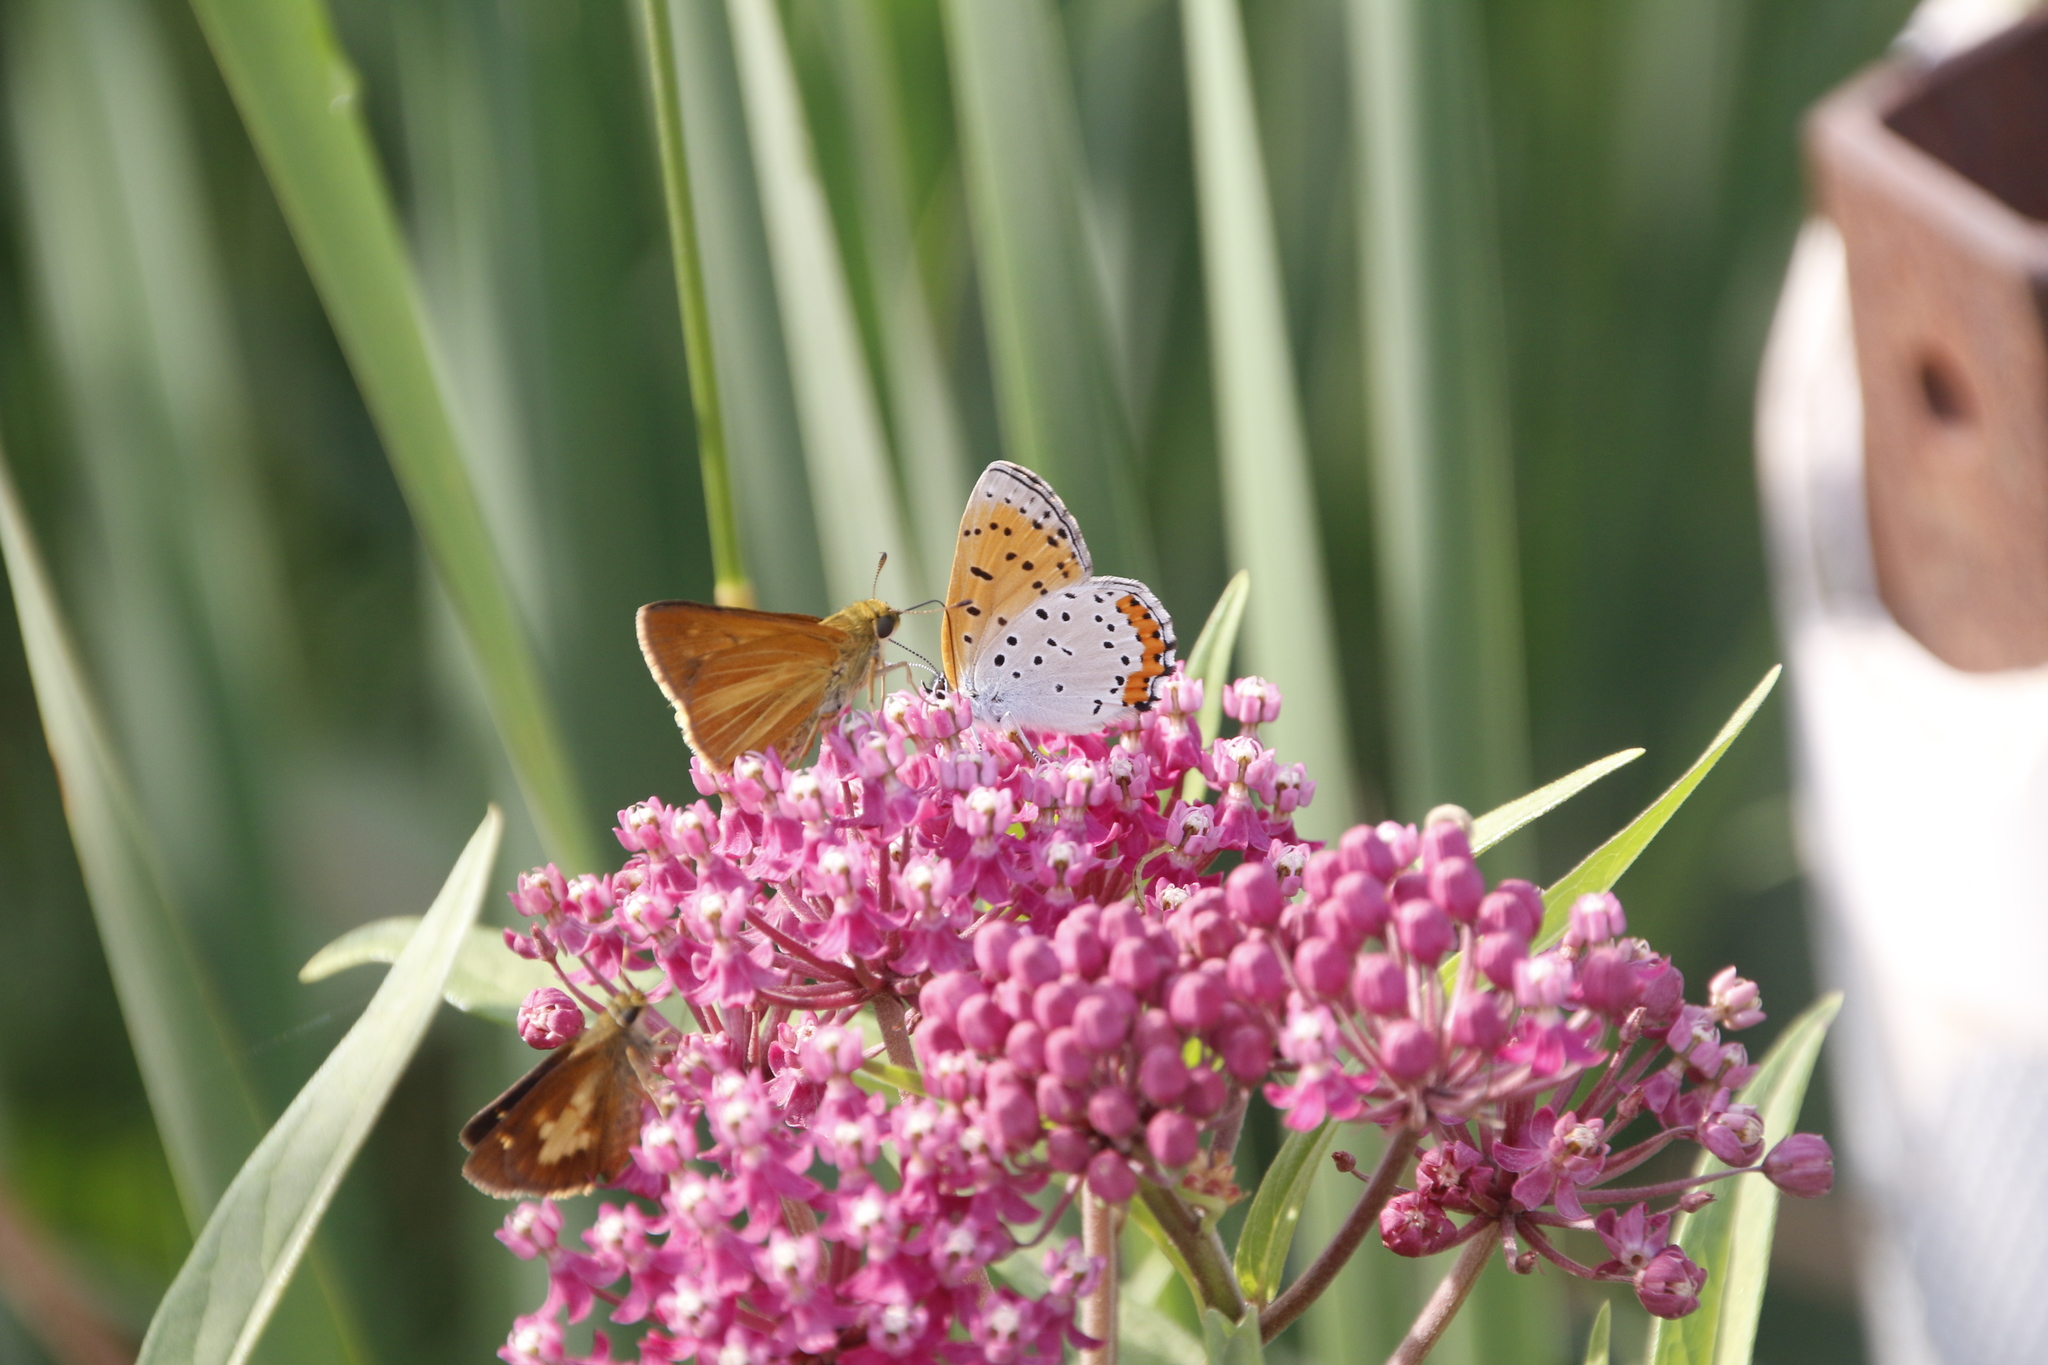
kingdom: Animalia
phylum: Arthropoda
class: Insecta
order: Lepidoptera
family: Lycaenidae
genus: Tharsalea
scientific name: Tharsalea hyllus
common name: Bronze copper
